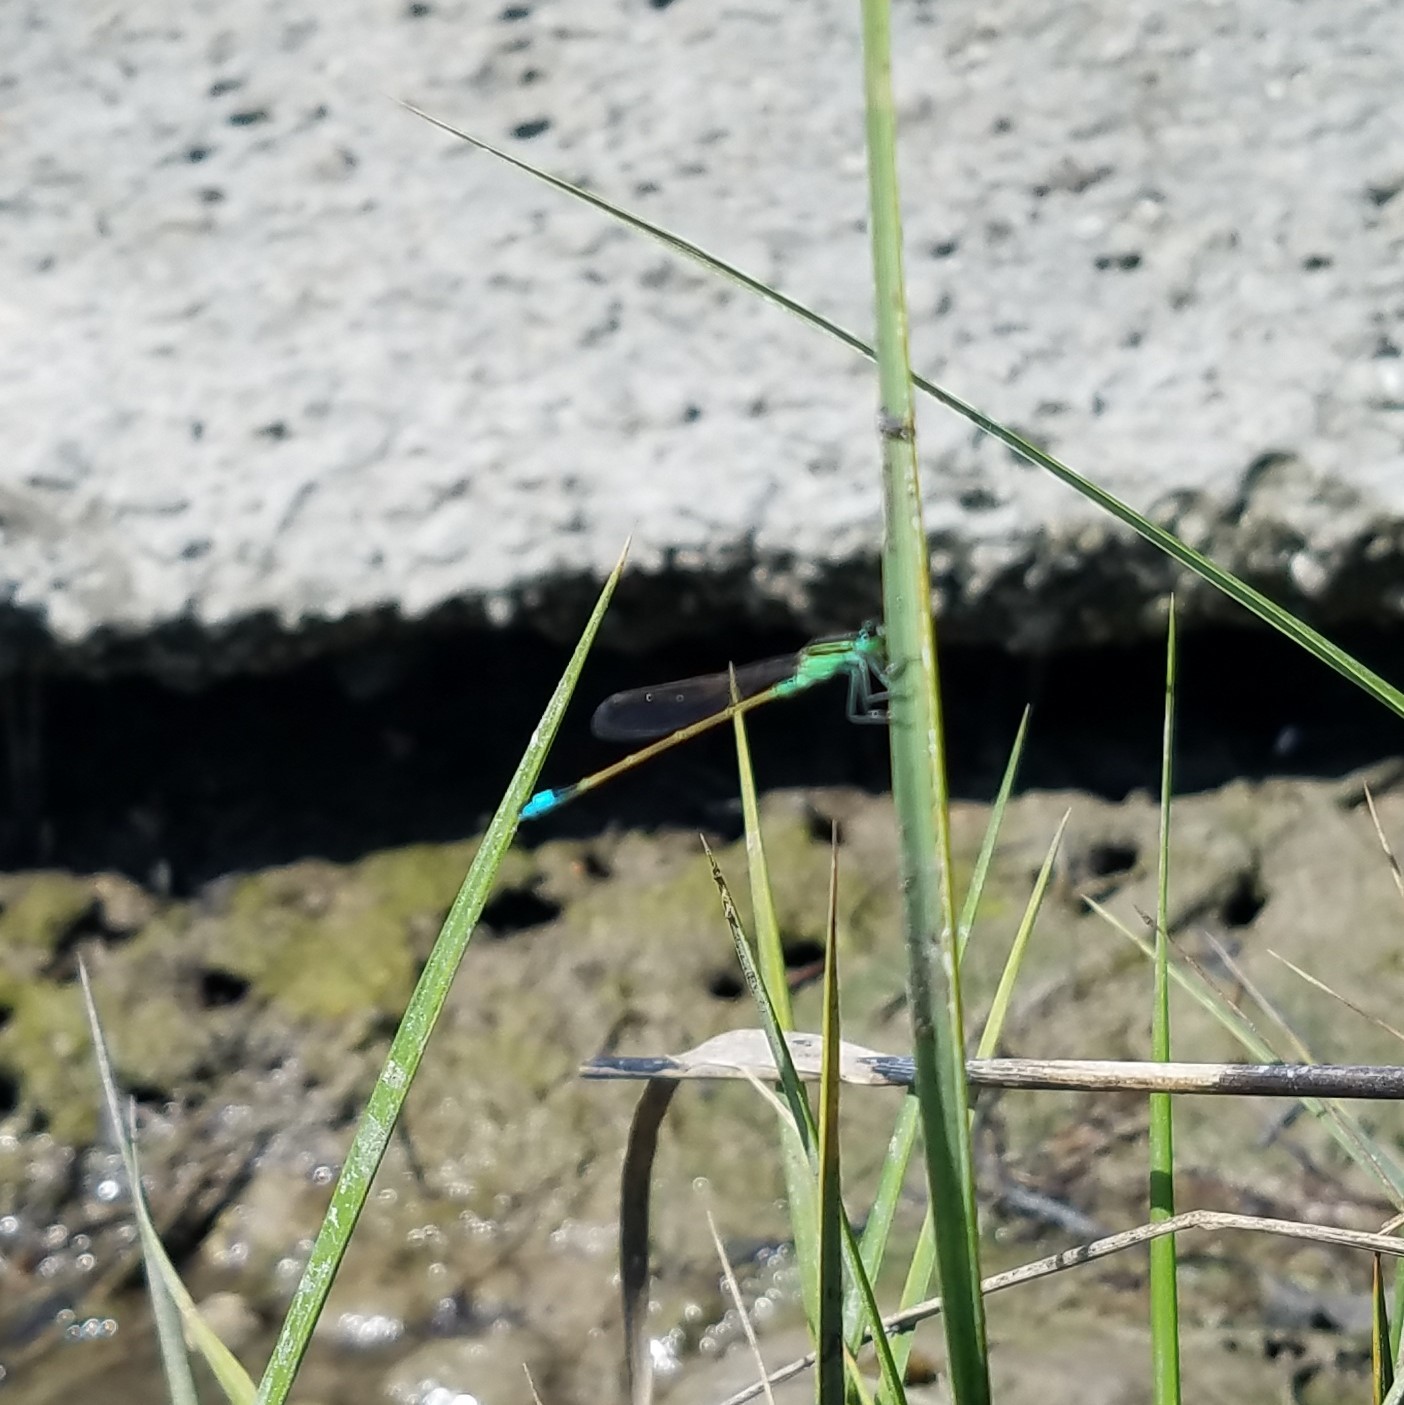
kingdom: Animalia
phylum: Arthropoda
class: Insecta
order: Odonata
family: Coenagrionidae
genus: Ischnura
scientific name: Ischnura ramburii
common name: Rambur's forktail
